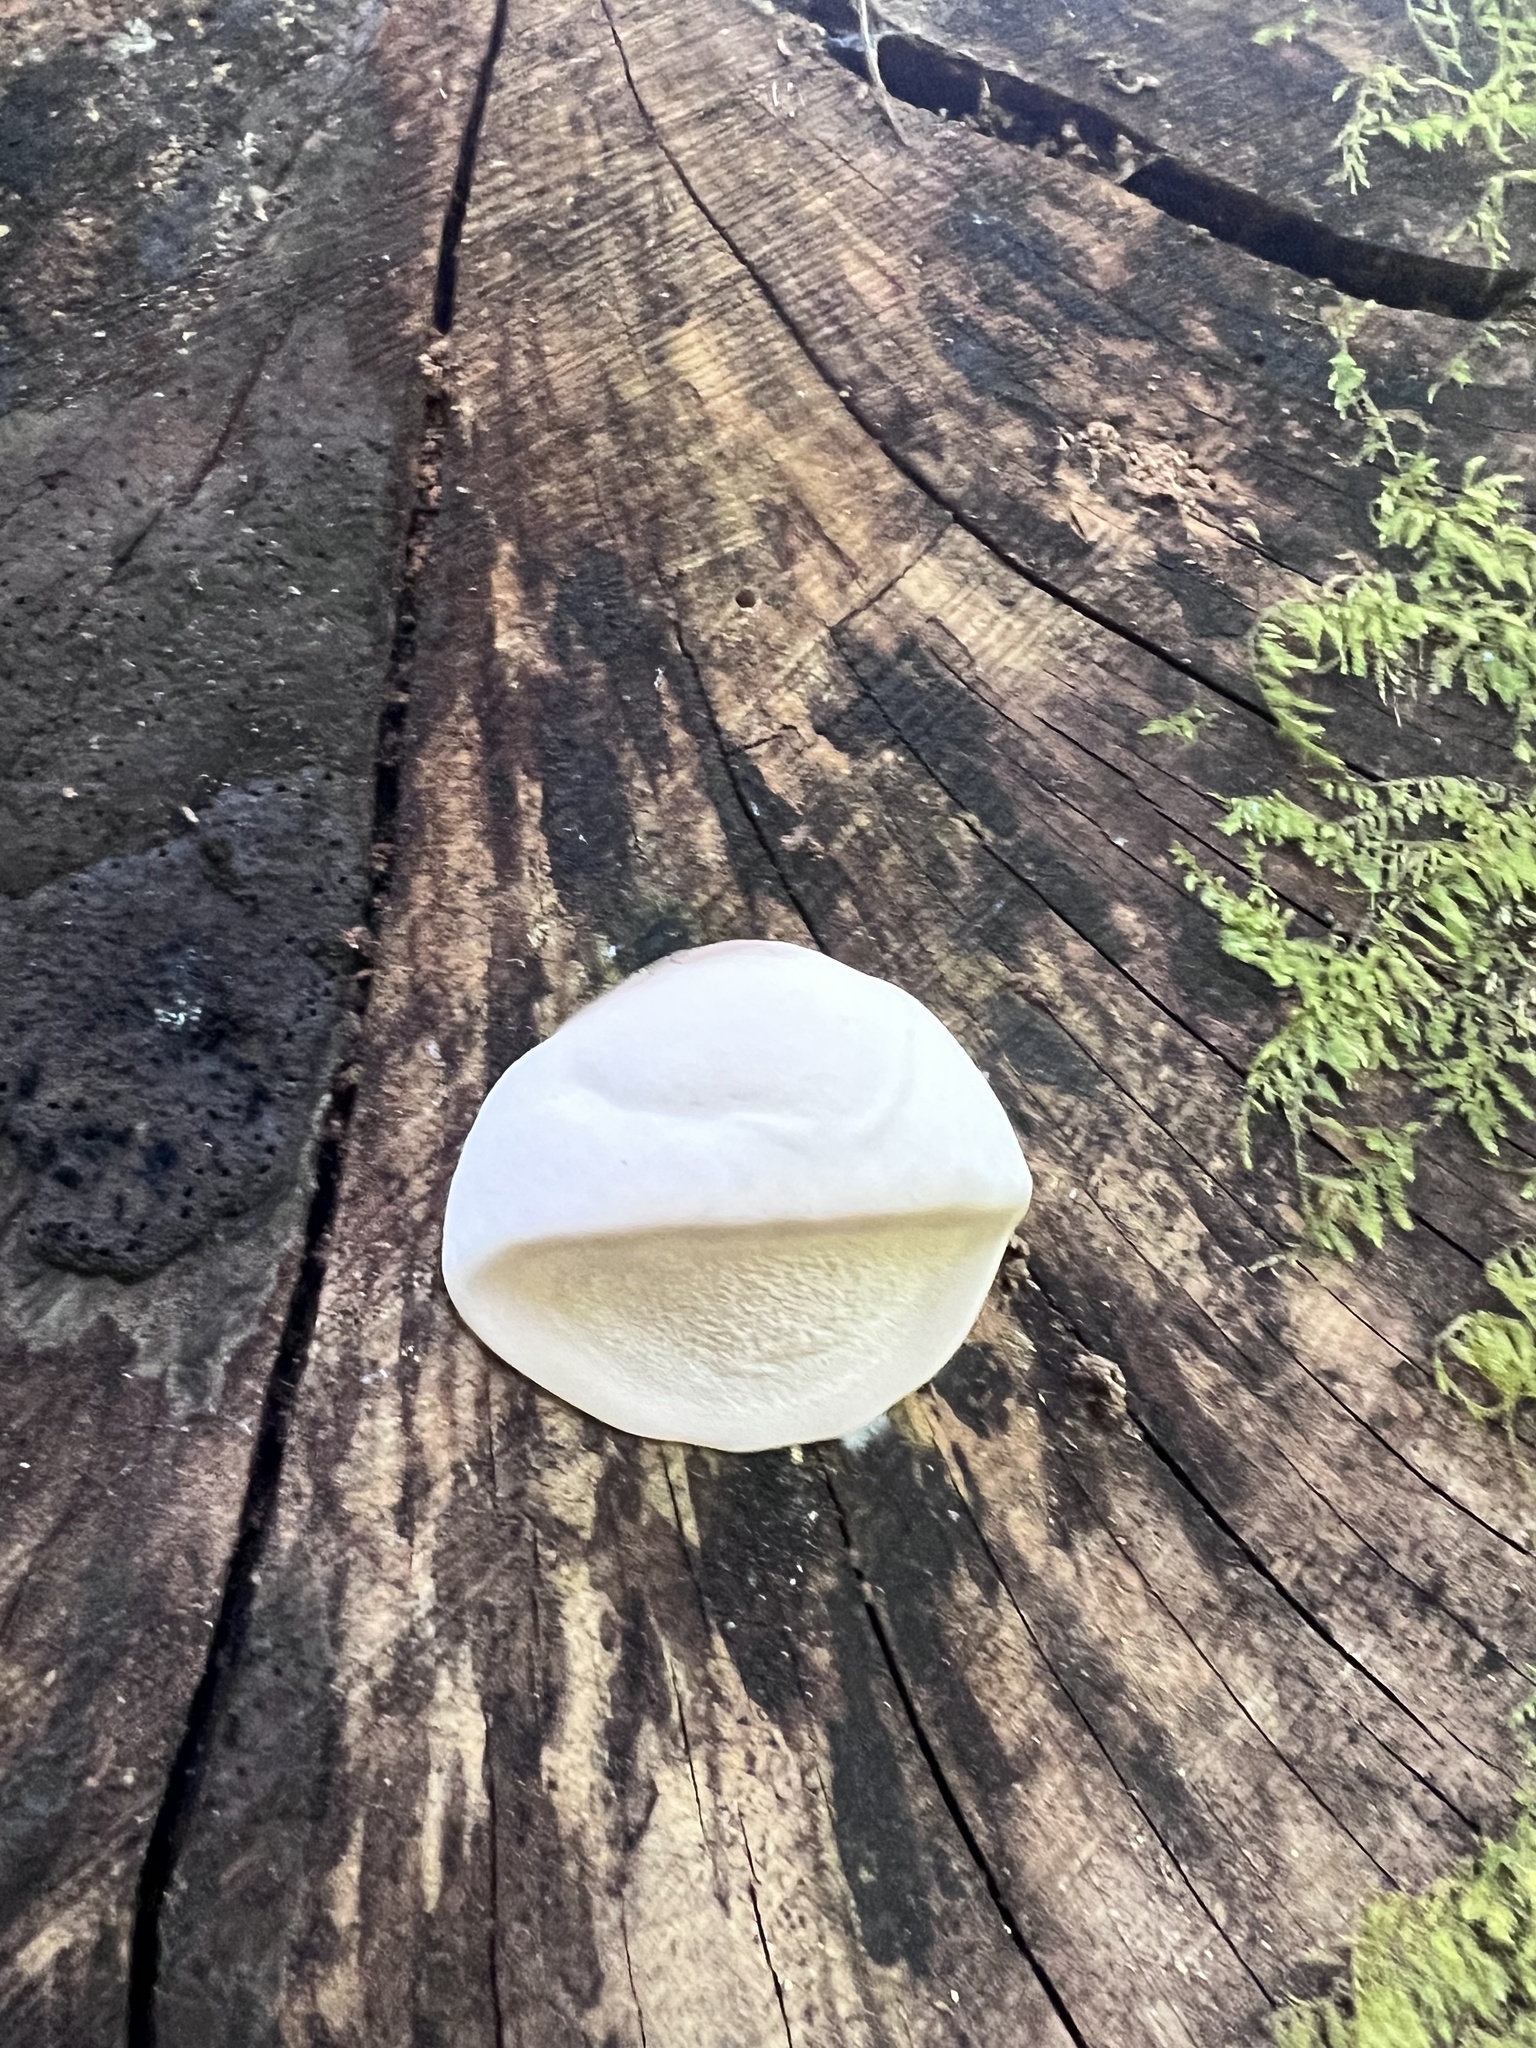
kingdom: Fungi
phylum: Basidiomycota
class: Agaricomycetes
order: Polyporales
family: Polyporaceae
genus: Ganoderma
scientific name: Ganoderma brownii
